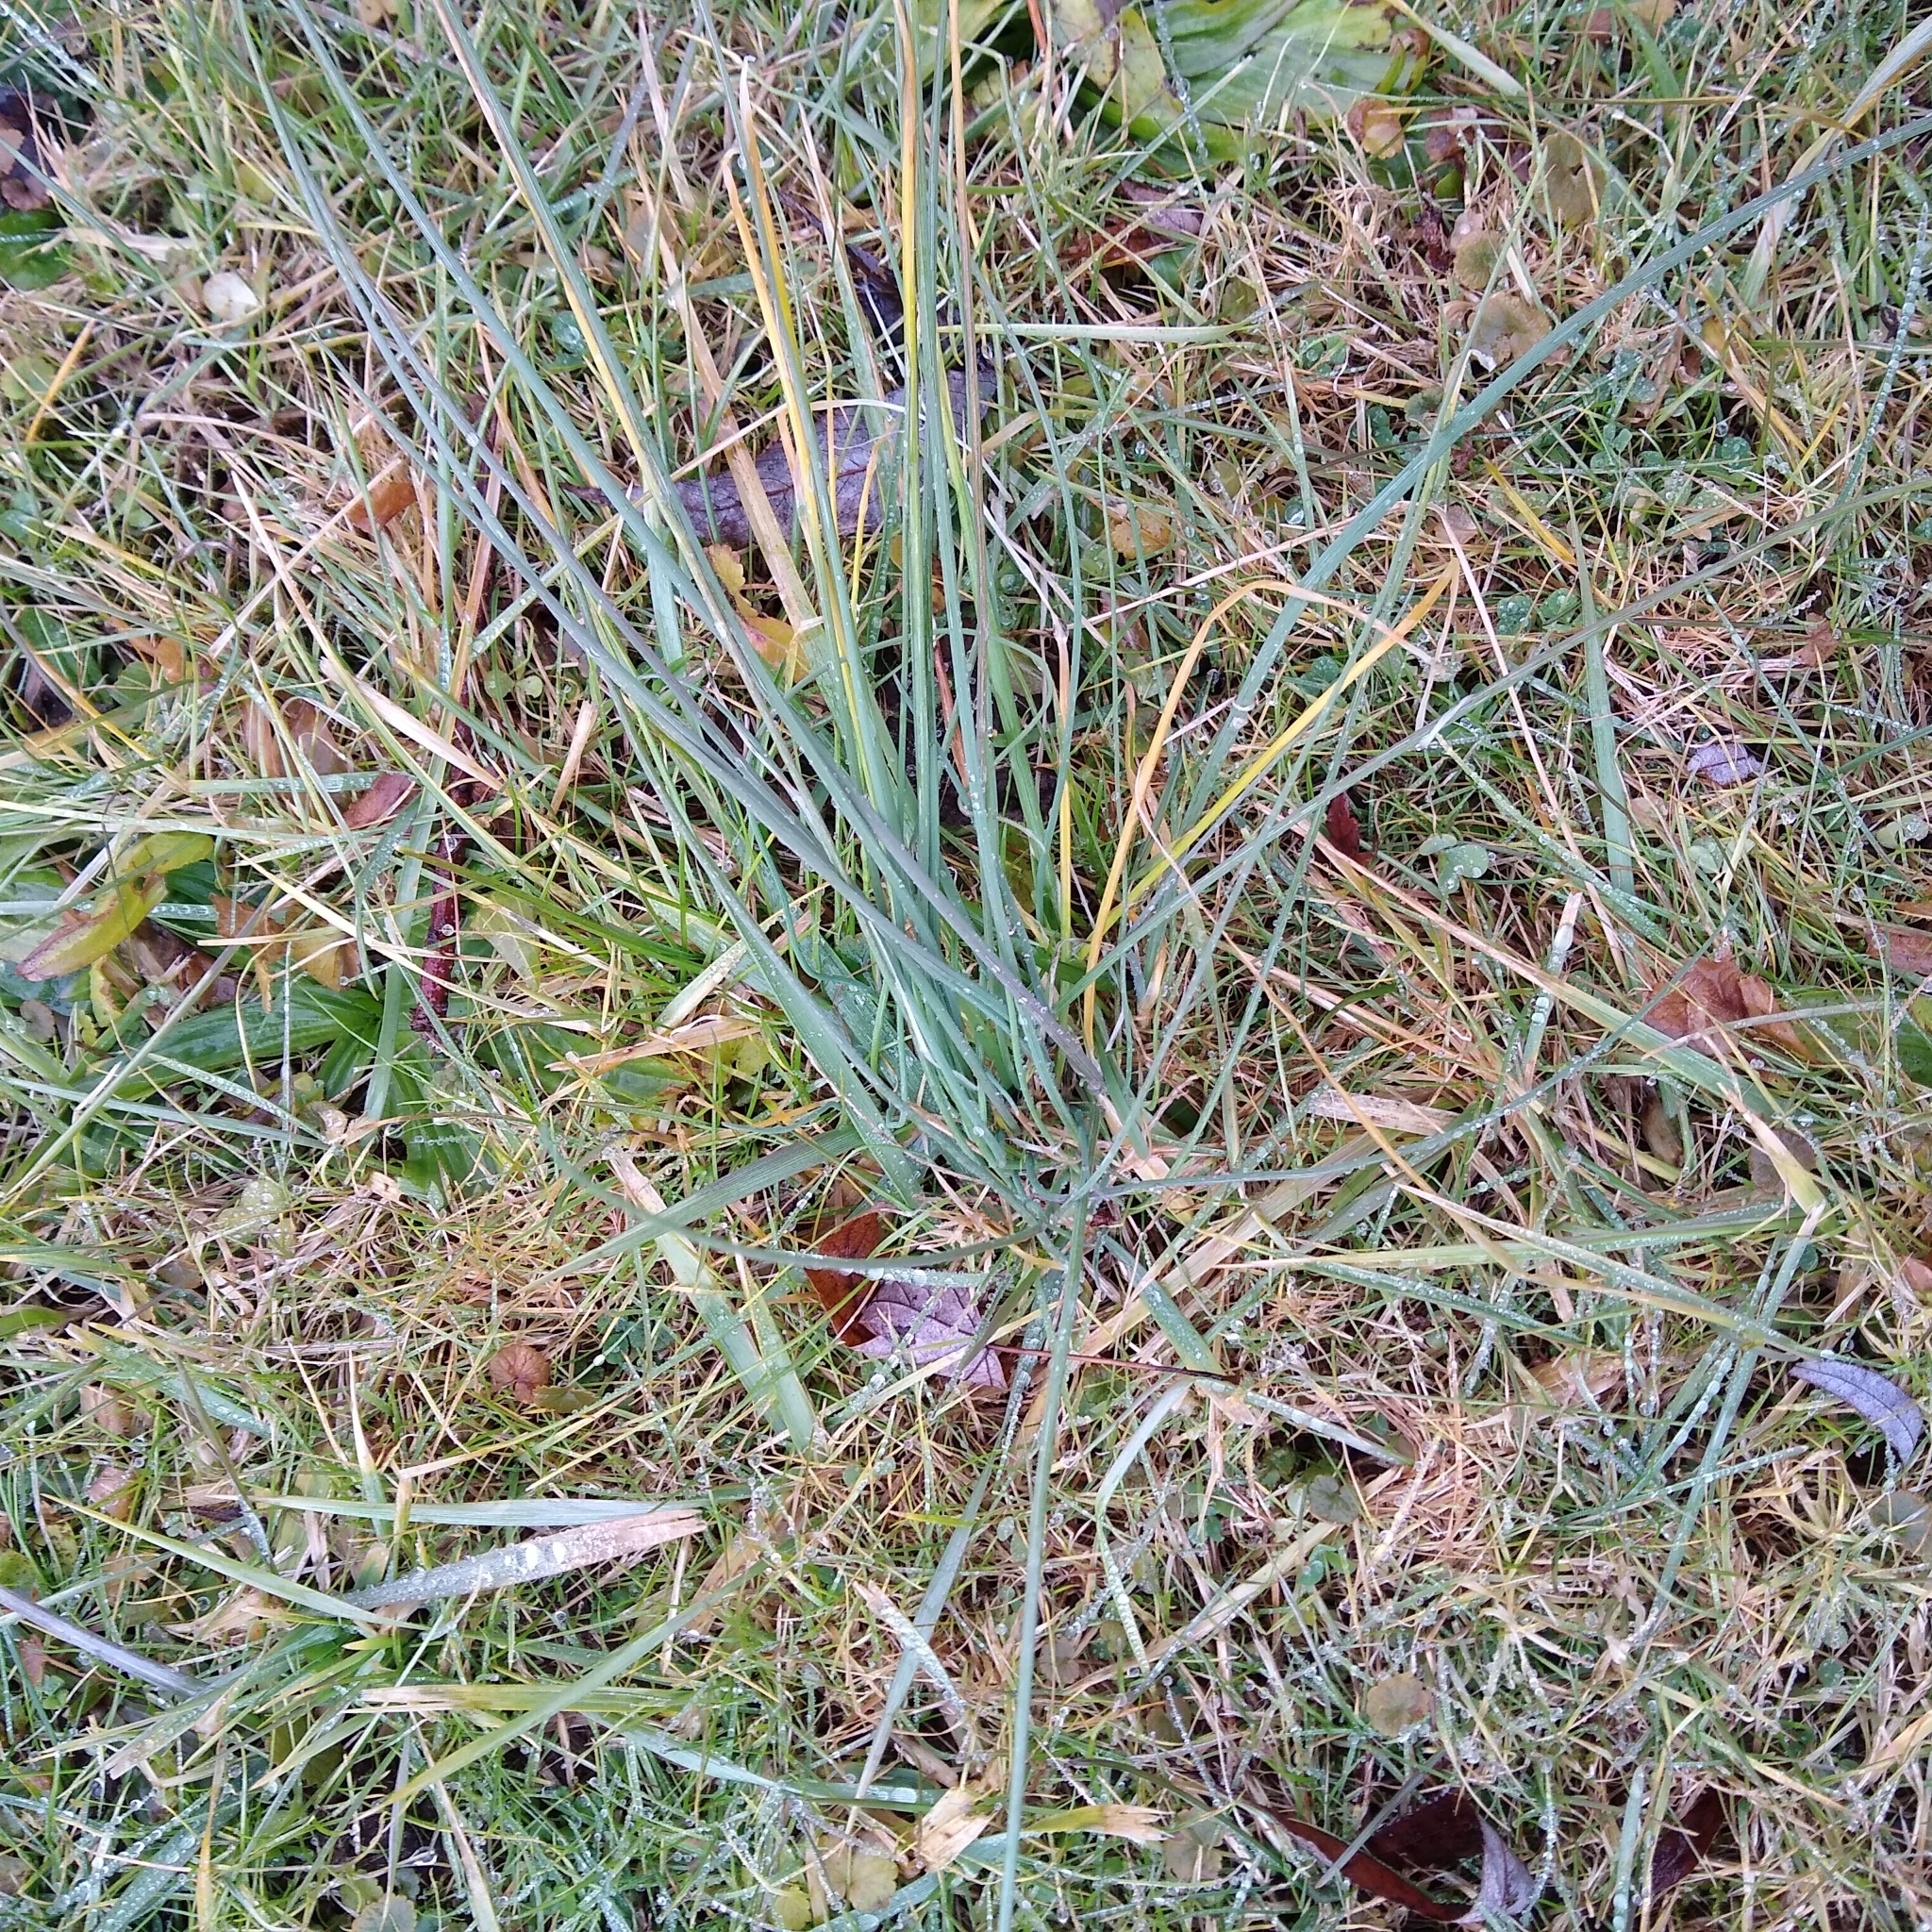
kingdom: Plantae
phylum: Tracheophyta
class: Liliopsida
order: Asparagales
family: Amaryllidaceae
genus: Allium
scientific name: Allium vineale
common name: Crow garlic
